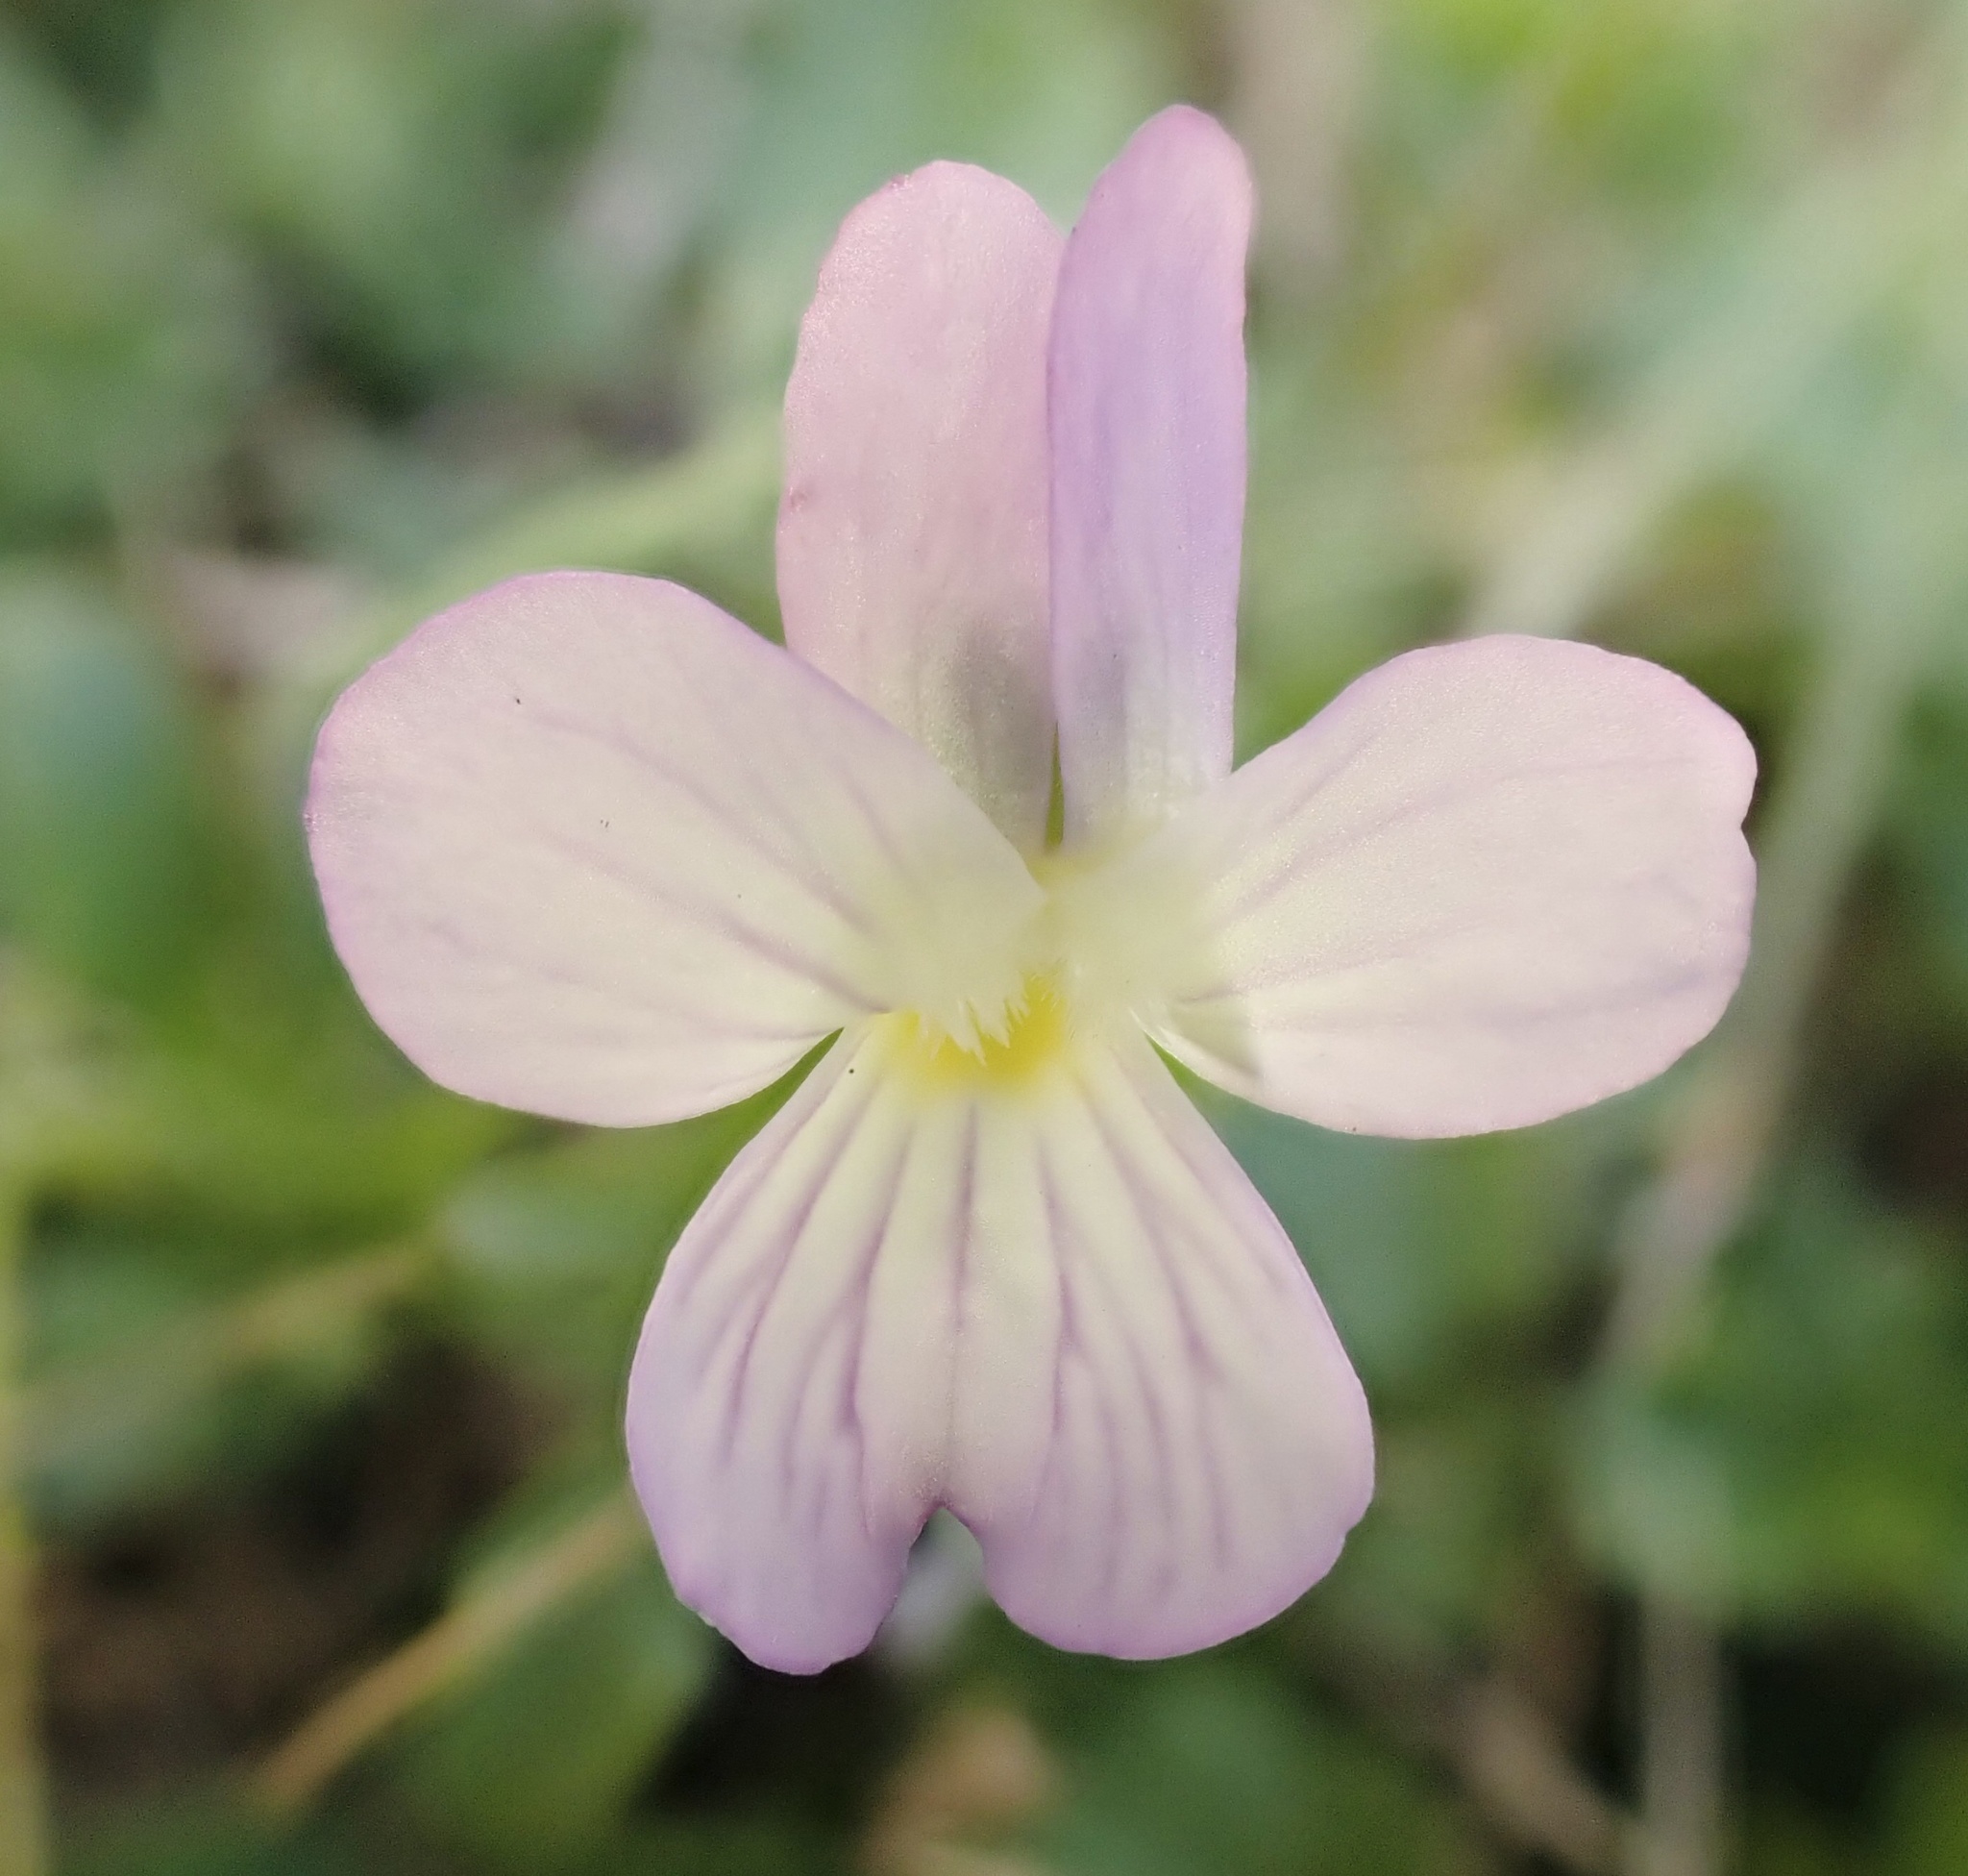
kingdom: Plantae
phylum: Tracheophyta
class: Magnoliopsida
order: Malpighiales
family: Violaceae
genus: Viola
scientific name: Viola rafinesquei
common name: American field pansy
